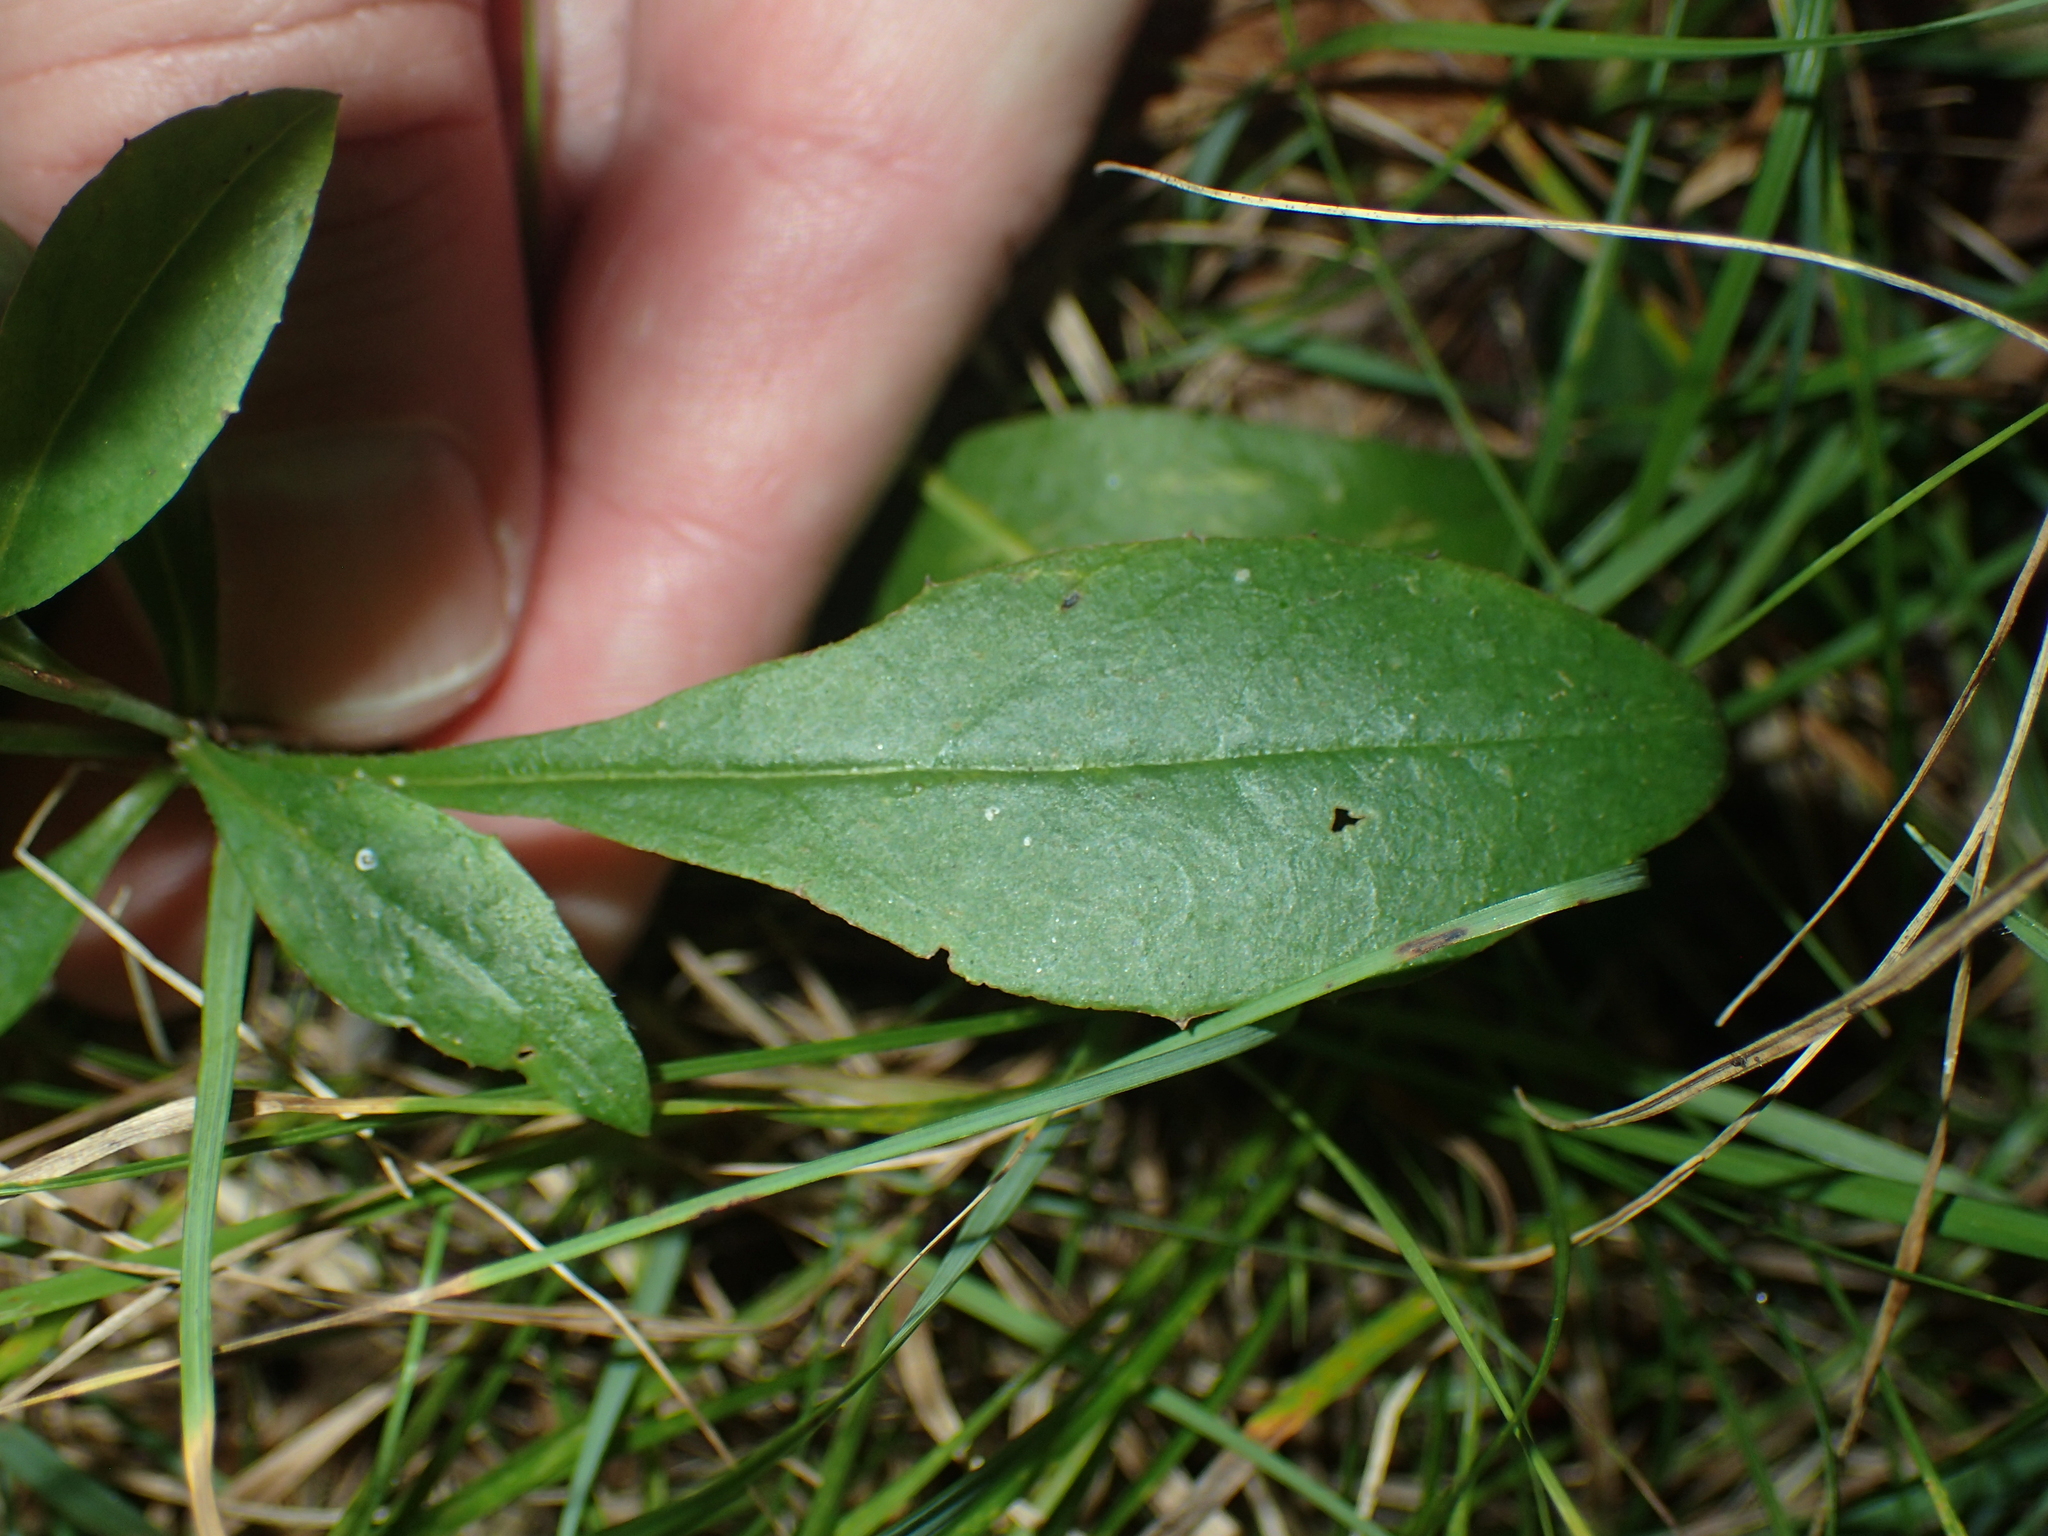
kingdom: Plantae
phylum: Tracheophyta
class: Magnoliopsida
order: Asterales
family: Asteraceae
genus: Hieracium
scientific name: Hieracium paniculatum
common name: Allegheny hawkweed
